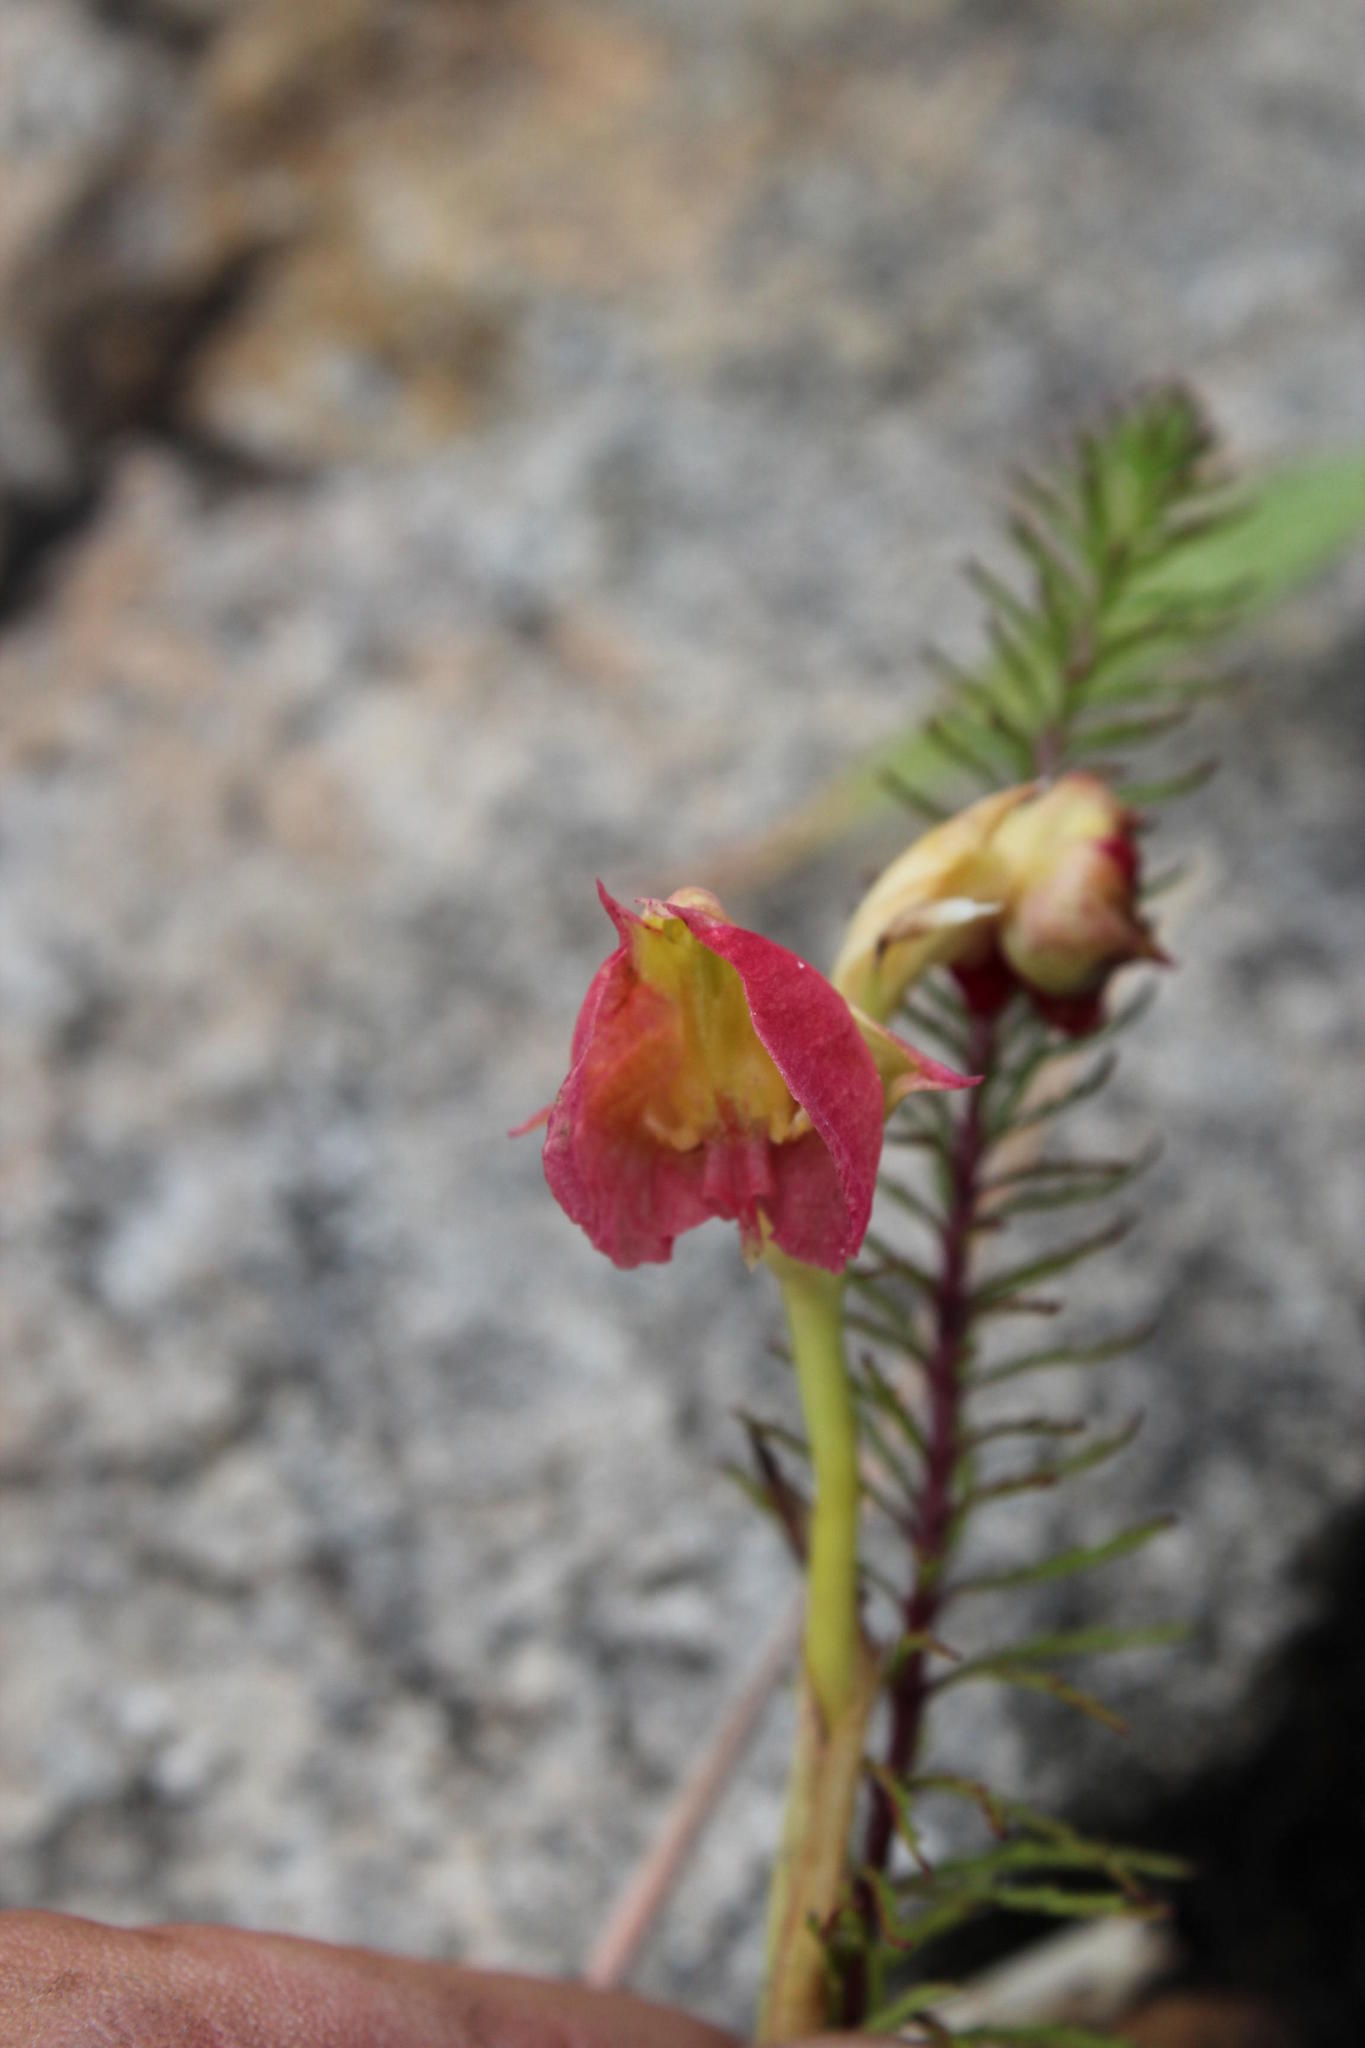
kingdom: Plantae
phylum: Tracheophyta
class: Liliopsida
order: Asparagales
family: Orchidaceae
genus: Pterygodium
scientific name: Pterygodium catholicum
